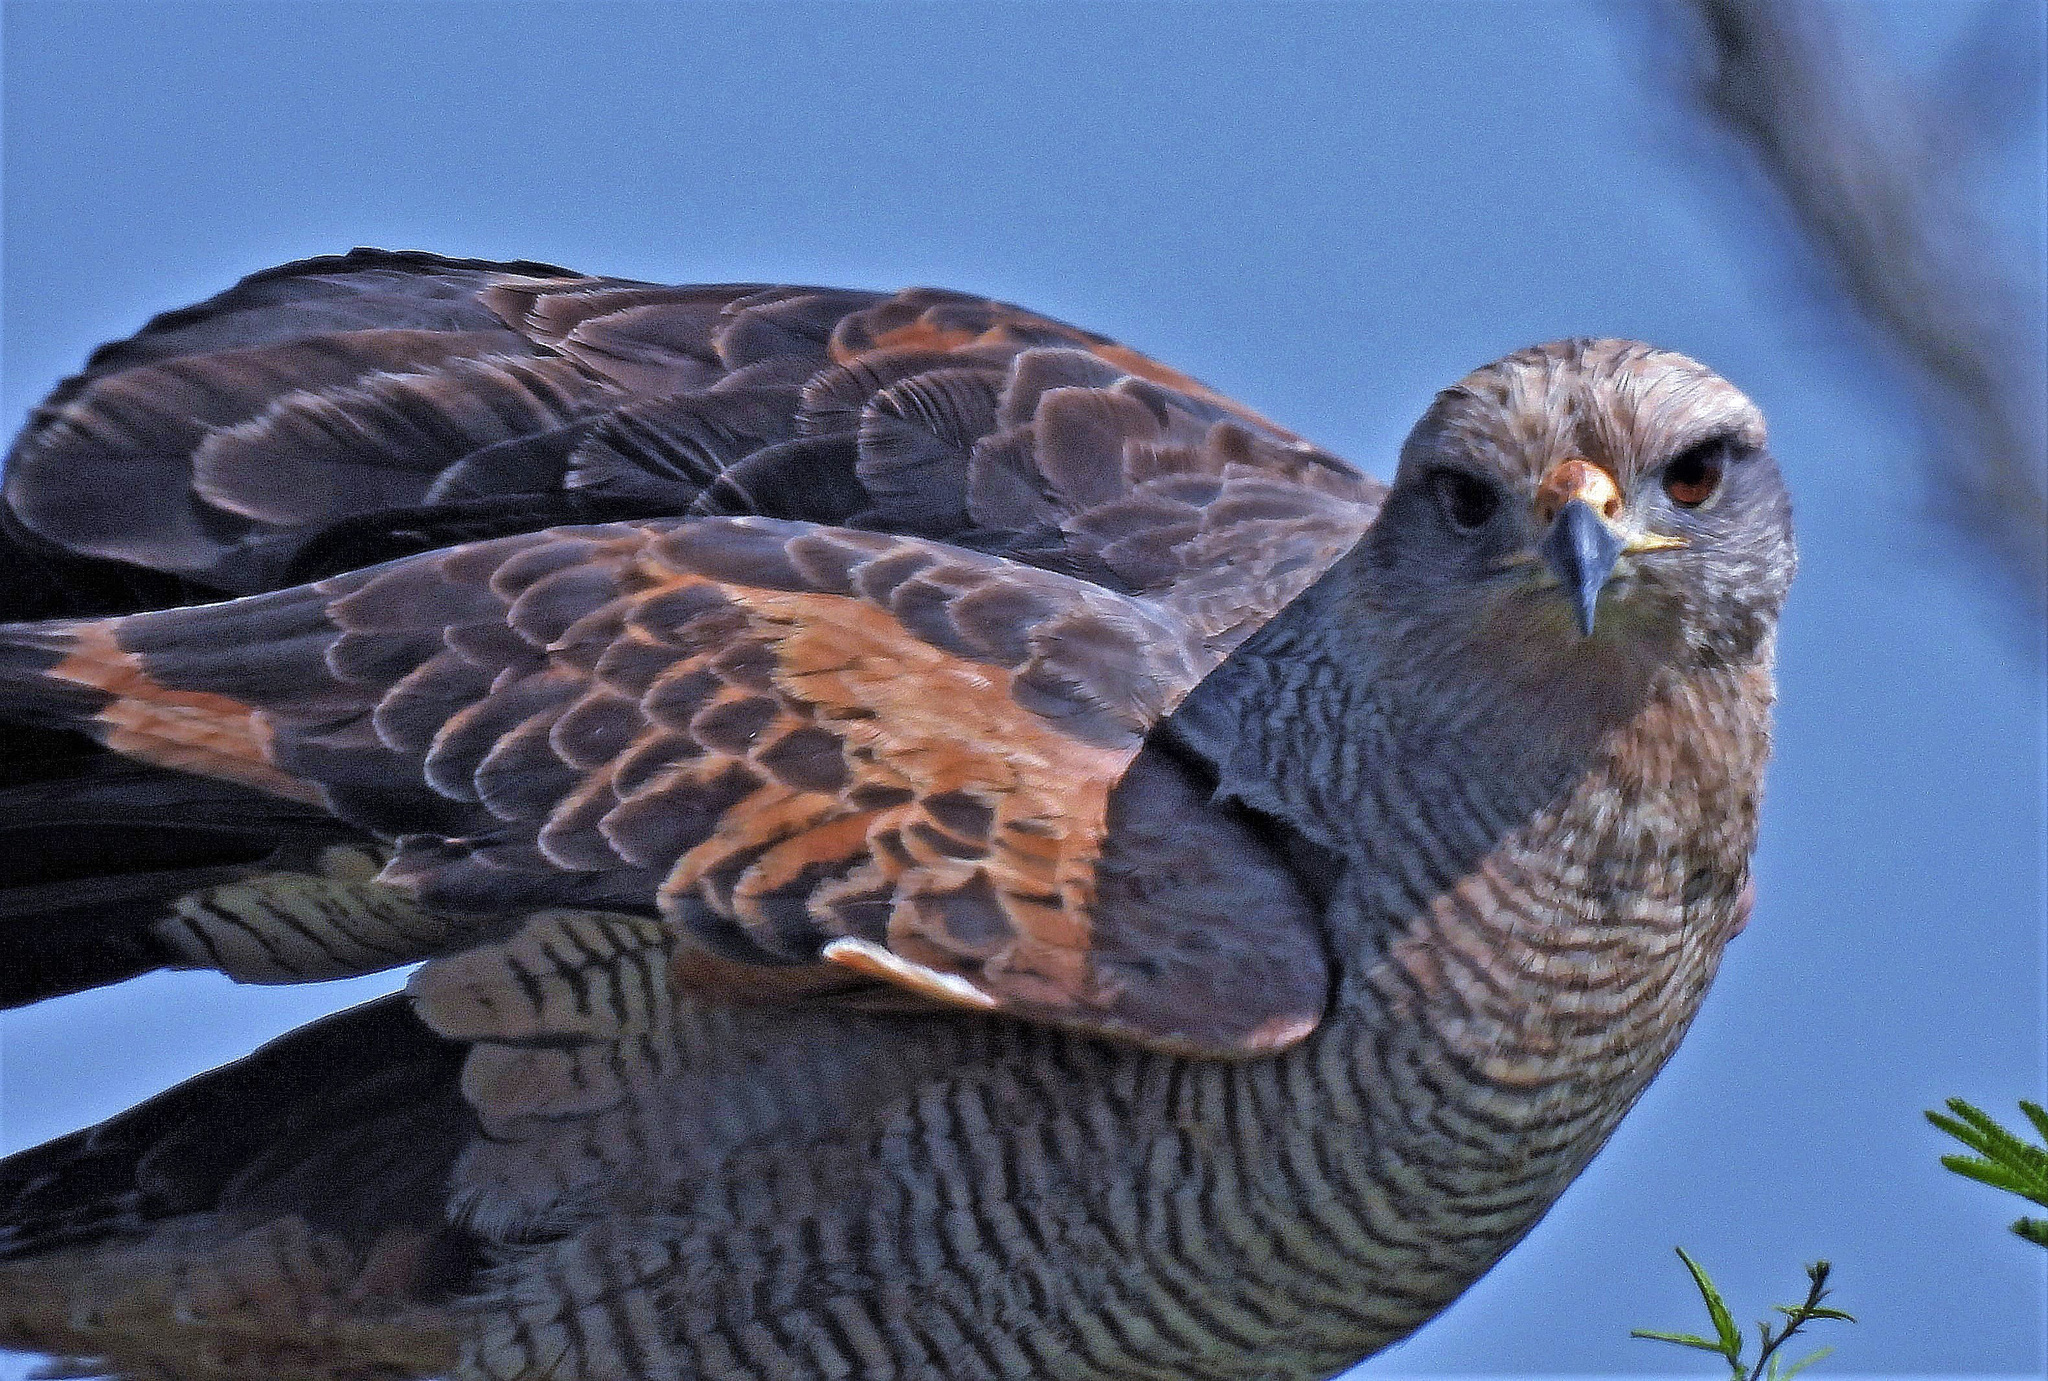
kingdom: Animalia
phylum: Chordata
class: Aves
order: Accipitriformes
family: Accipitridae
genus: Buteogallus
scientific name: Buteogallus meridionalis
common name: Savanna hawk
